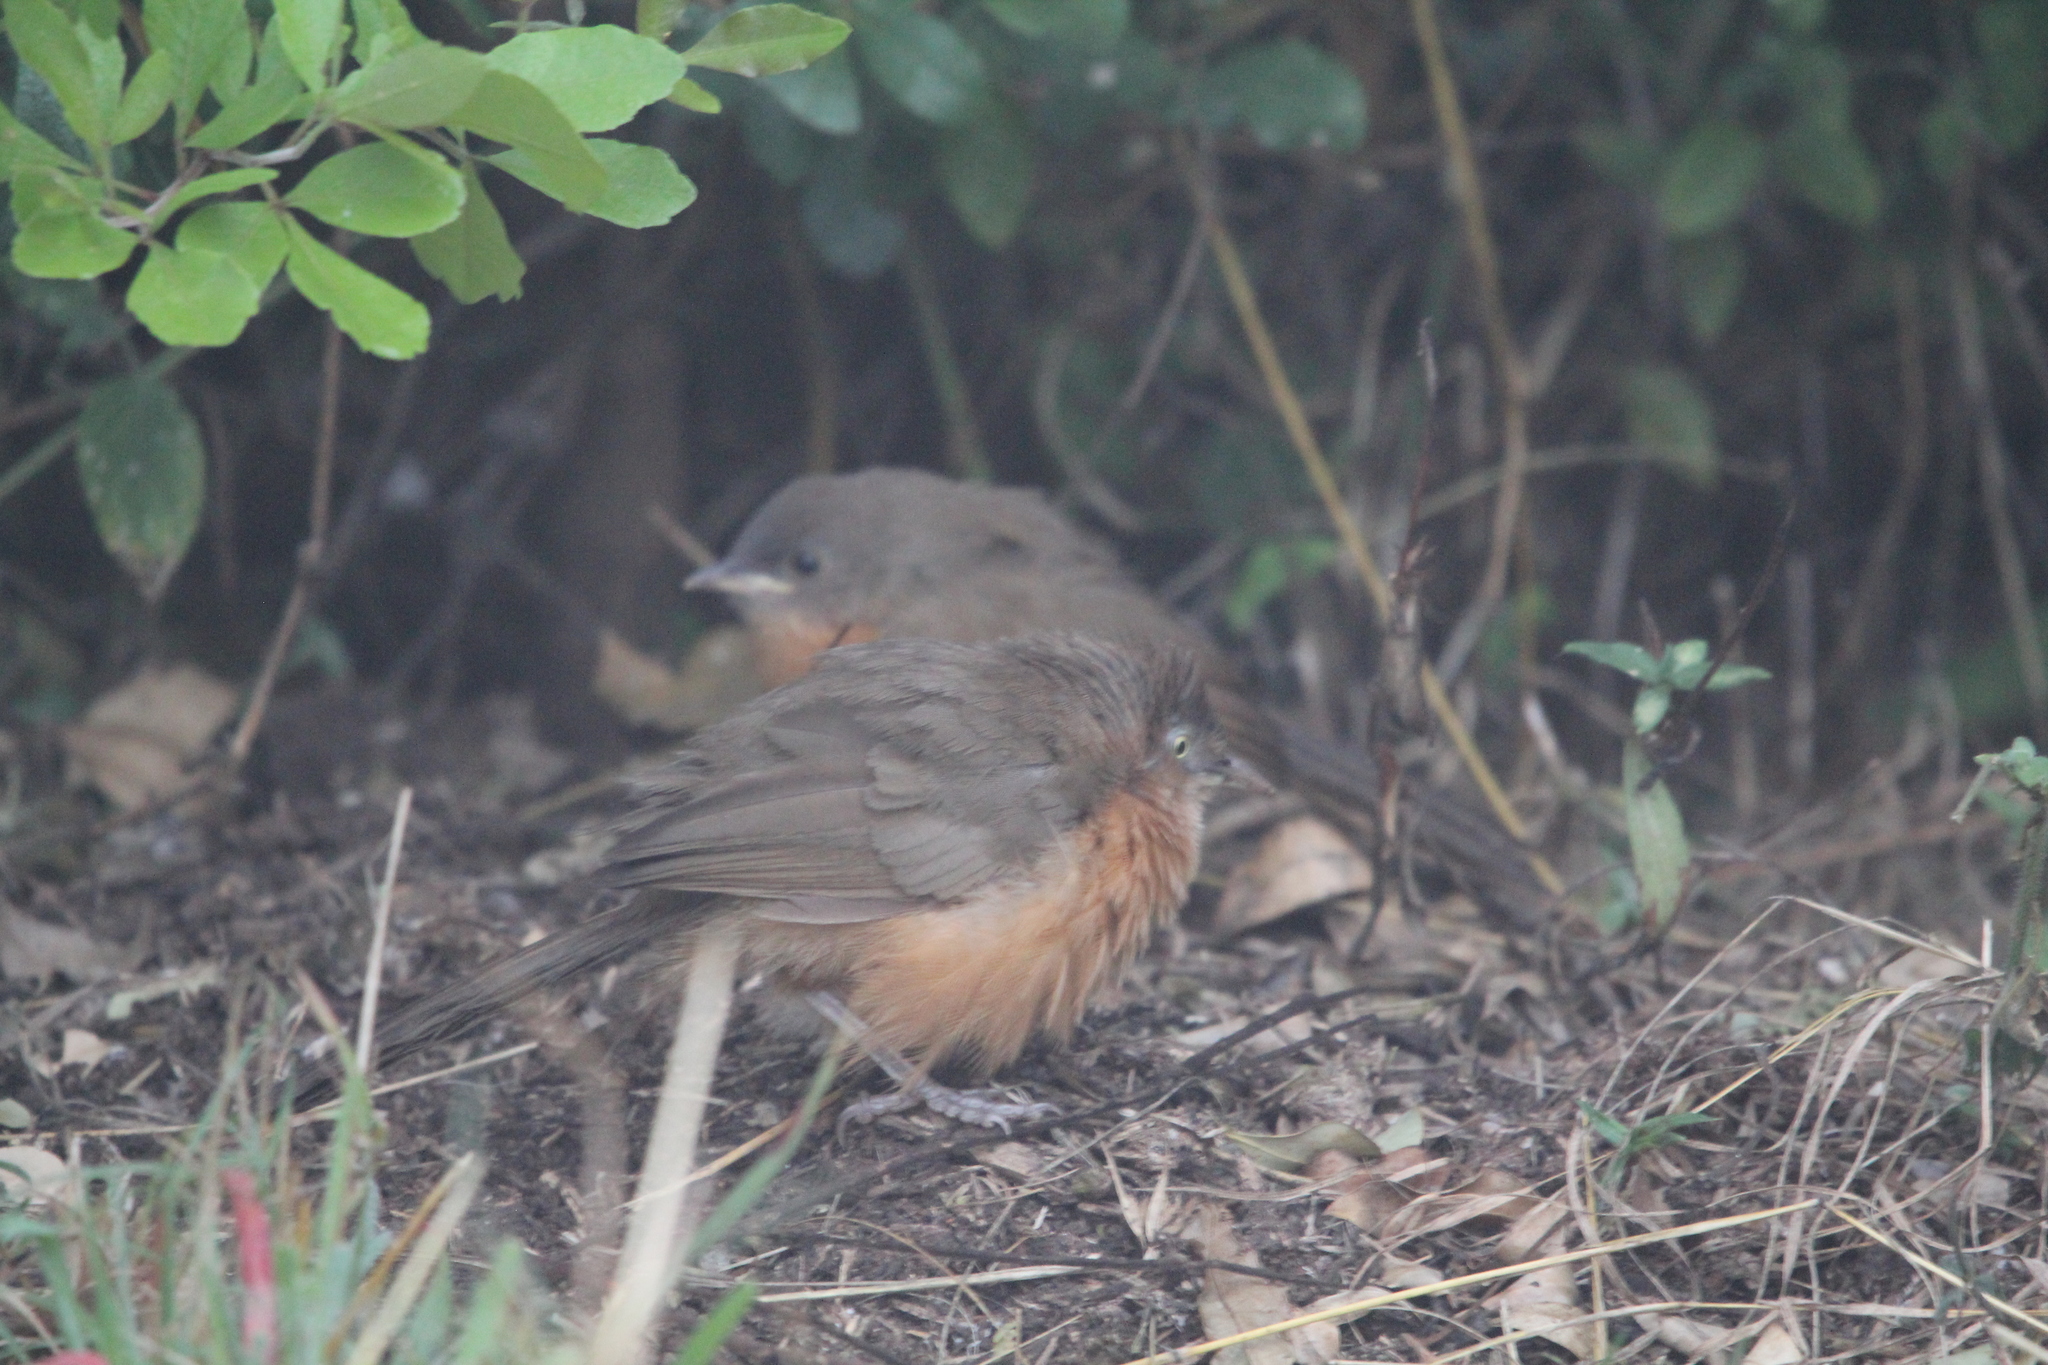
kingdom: Animalia
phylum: Chordata
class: Aves
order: Passeriformes
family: Leiothrichidae
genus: Turdoides
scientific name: Turdoides rubiginosa
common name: Rufous chatterer
